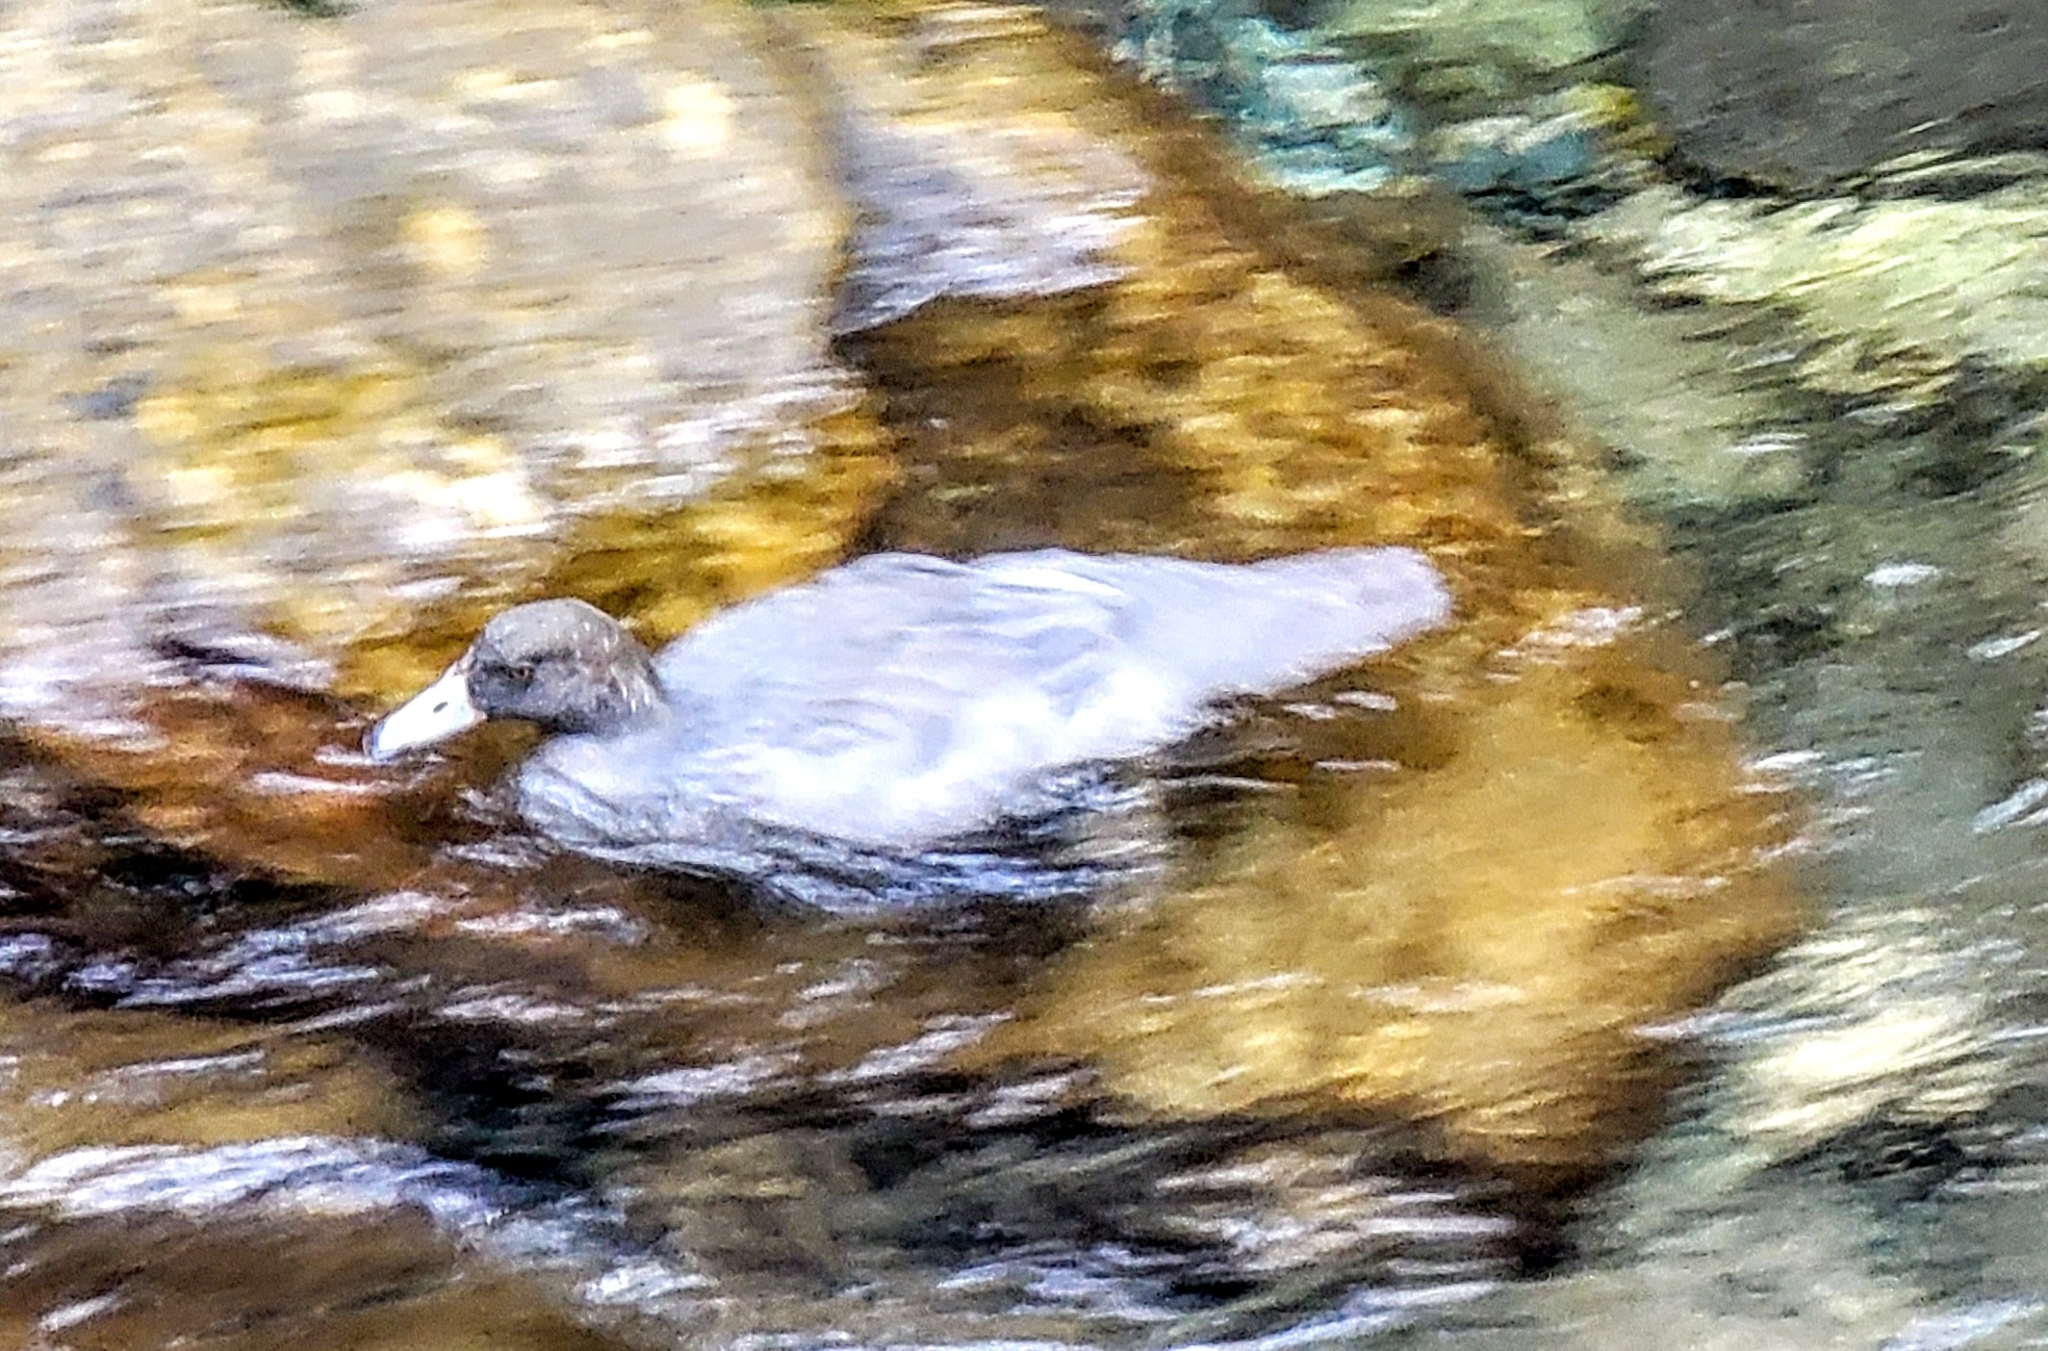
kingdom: Animalia
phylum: Chordata
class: Aves
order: Anseriformes
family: Anatidae
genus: Hymenolaimus
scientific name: Hymenolaimus malacorhynchos
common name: Blue duck
